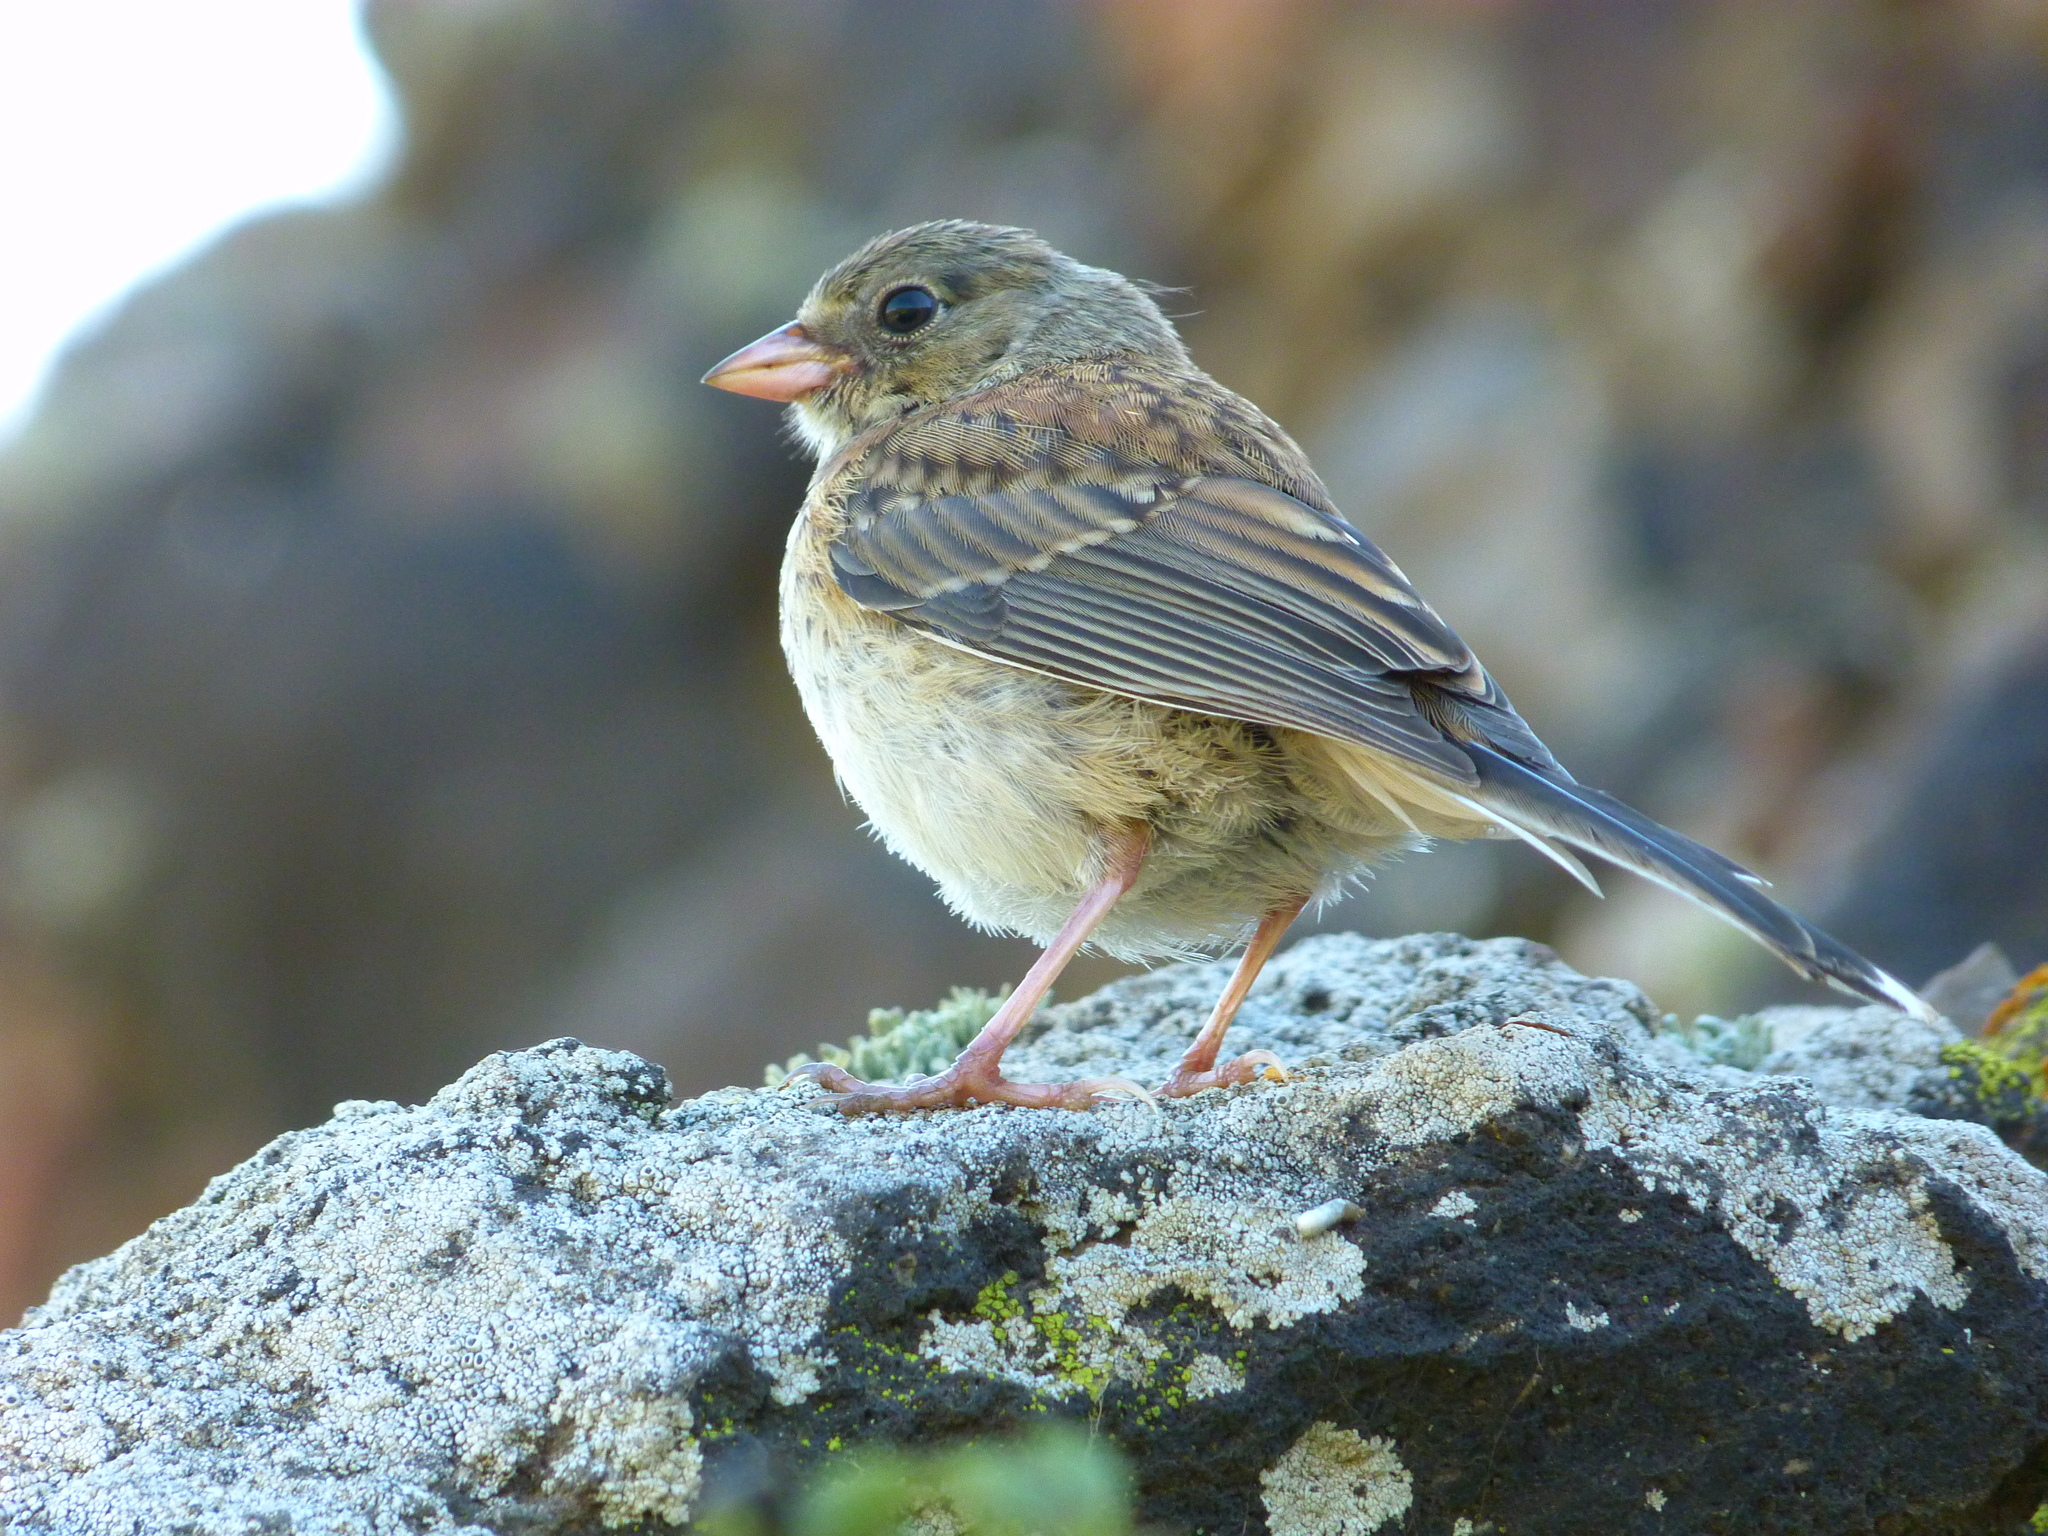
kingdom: Animalia
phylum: Chordata
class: Aves
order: Passeriformes
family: Passerellidae
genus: Junco
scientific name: Junco hyemalis
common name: Dark-eyed junco
